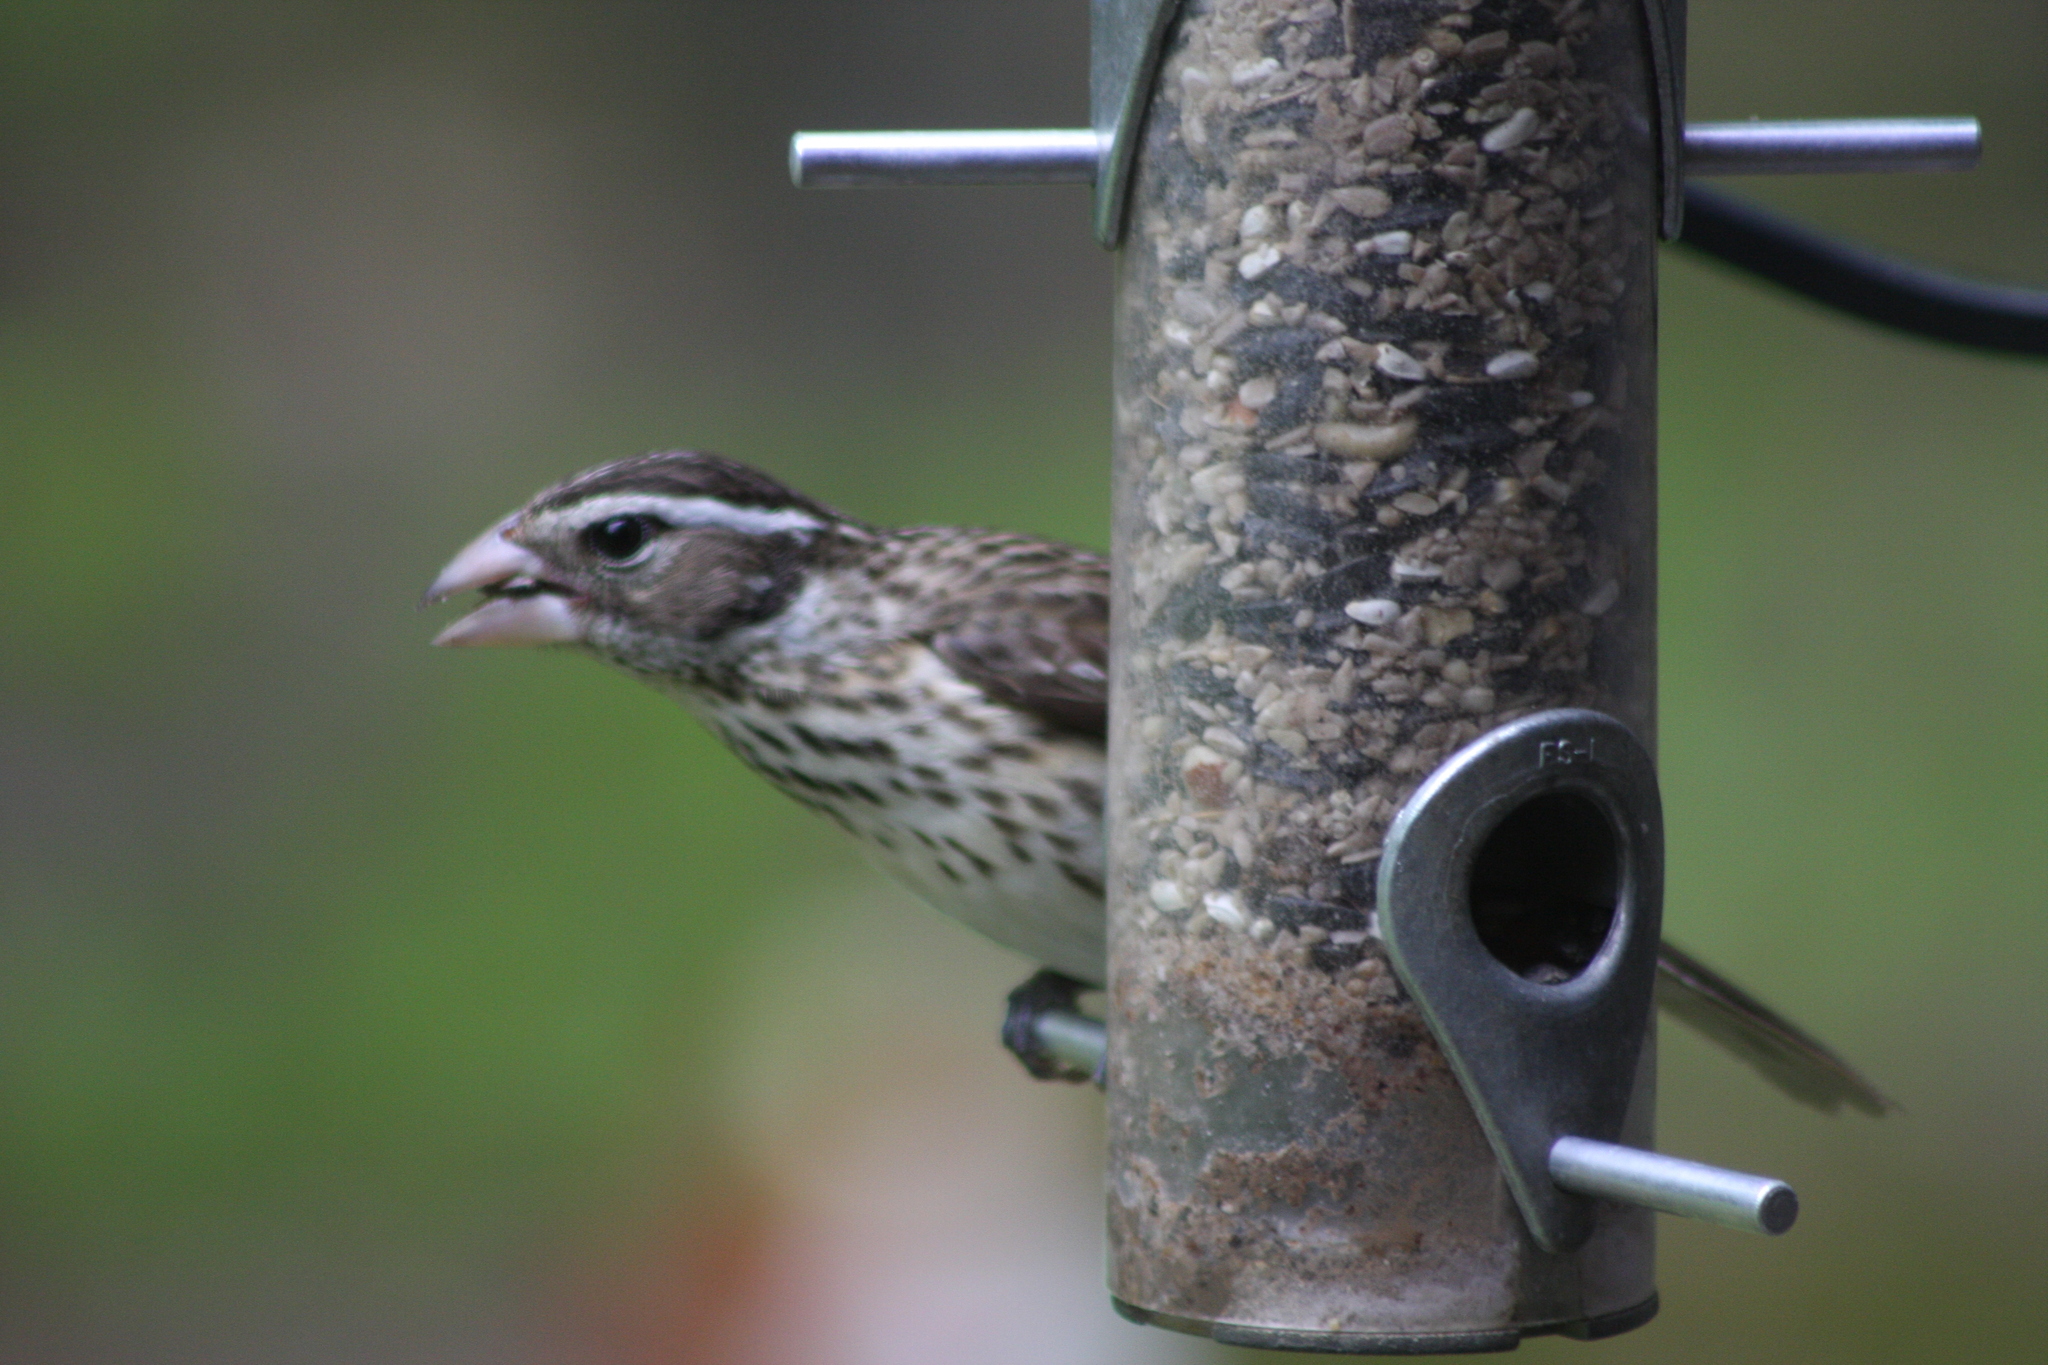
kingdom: Animalia
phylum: Chordata
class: Aves
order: Passeriformes
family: Cardinalidae
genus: Pheucticus
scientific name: Pheucticus ludovicianus
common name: Rose-breasted grosbeak
